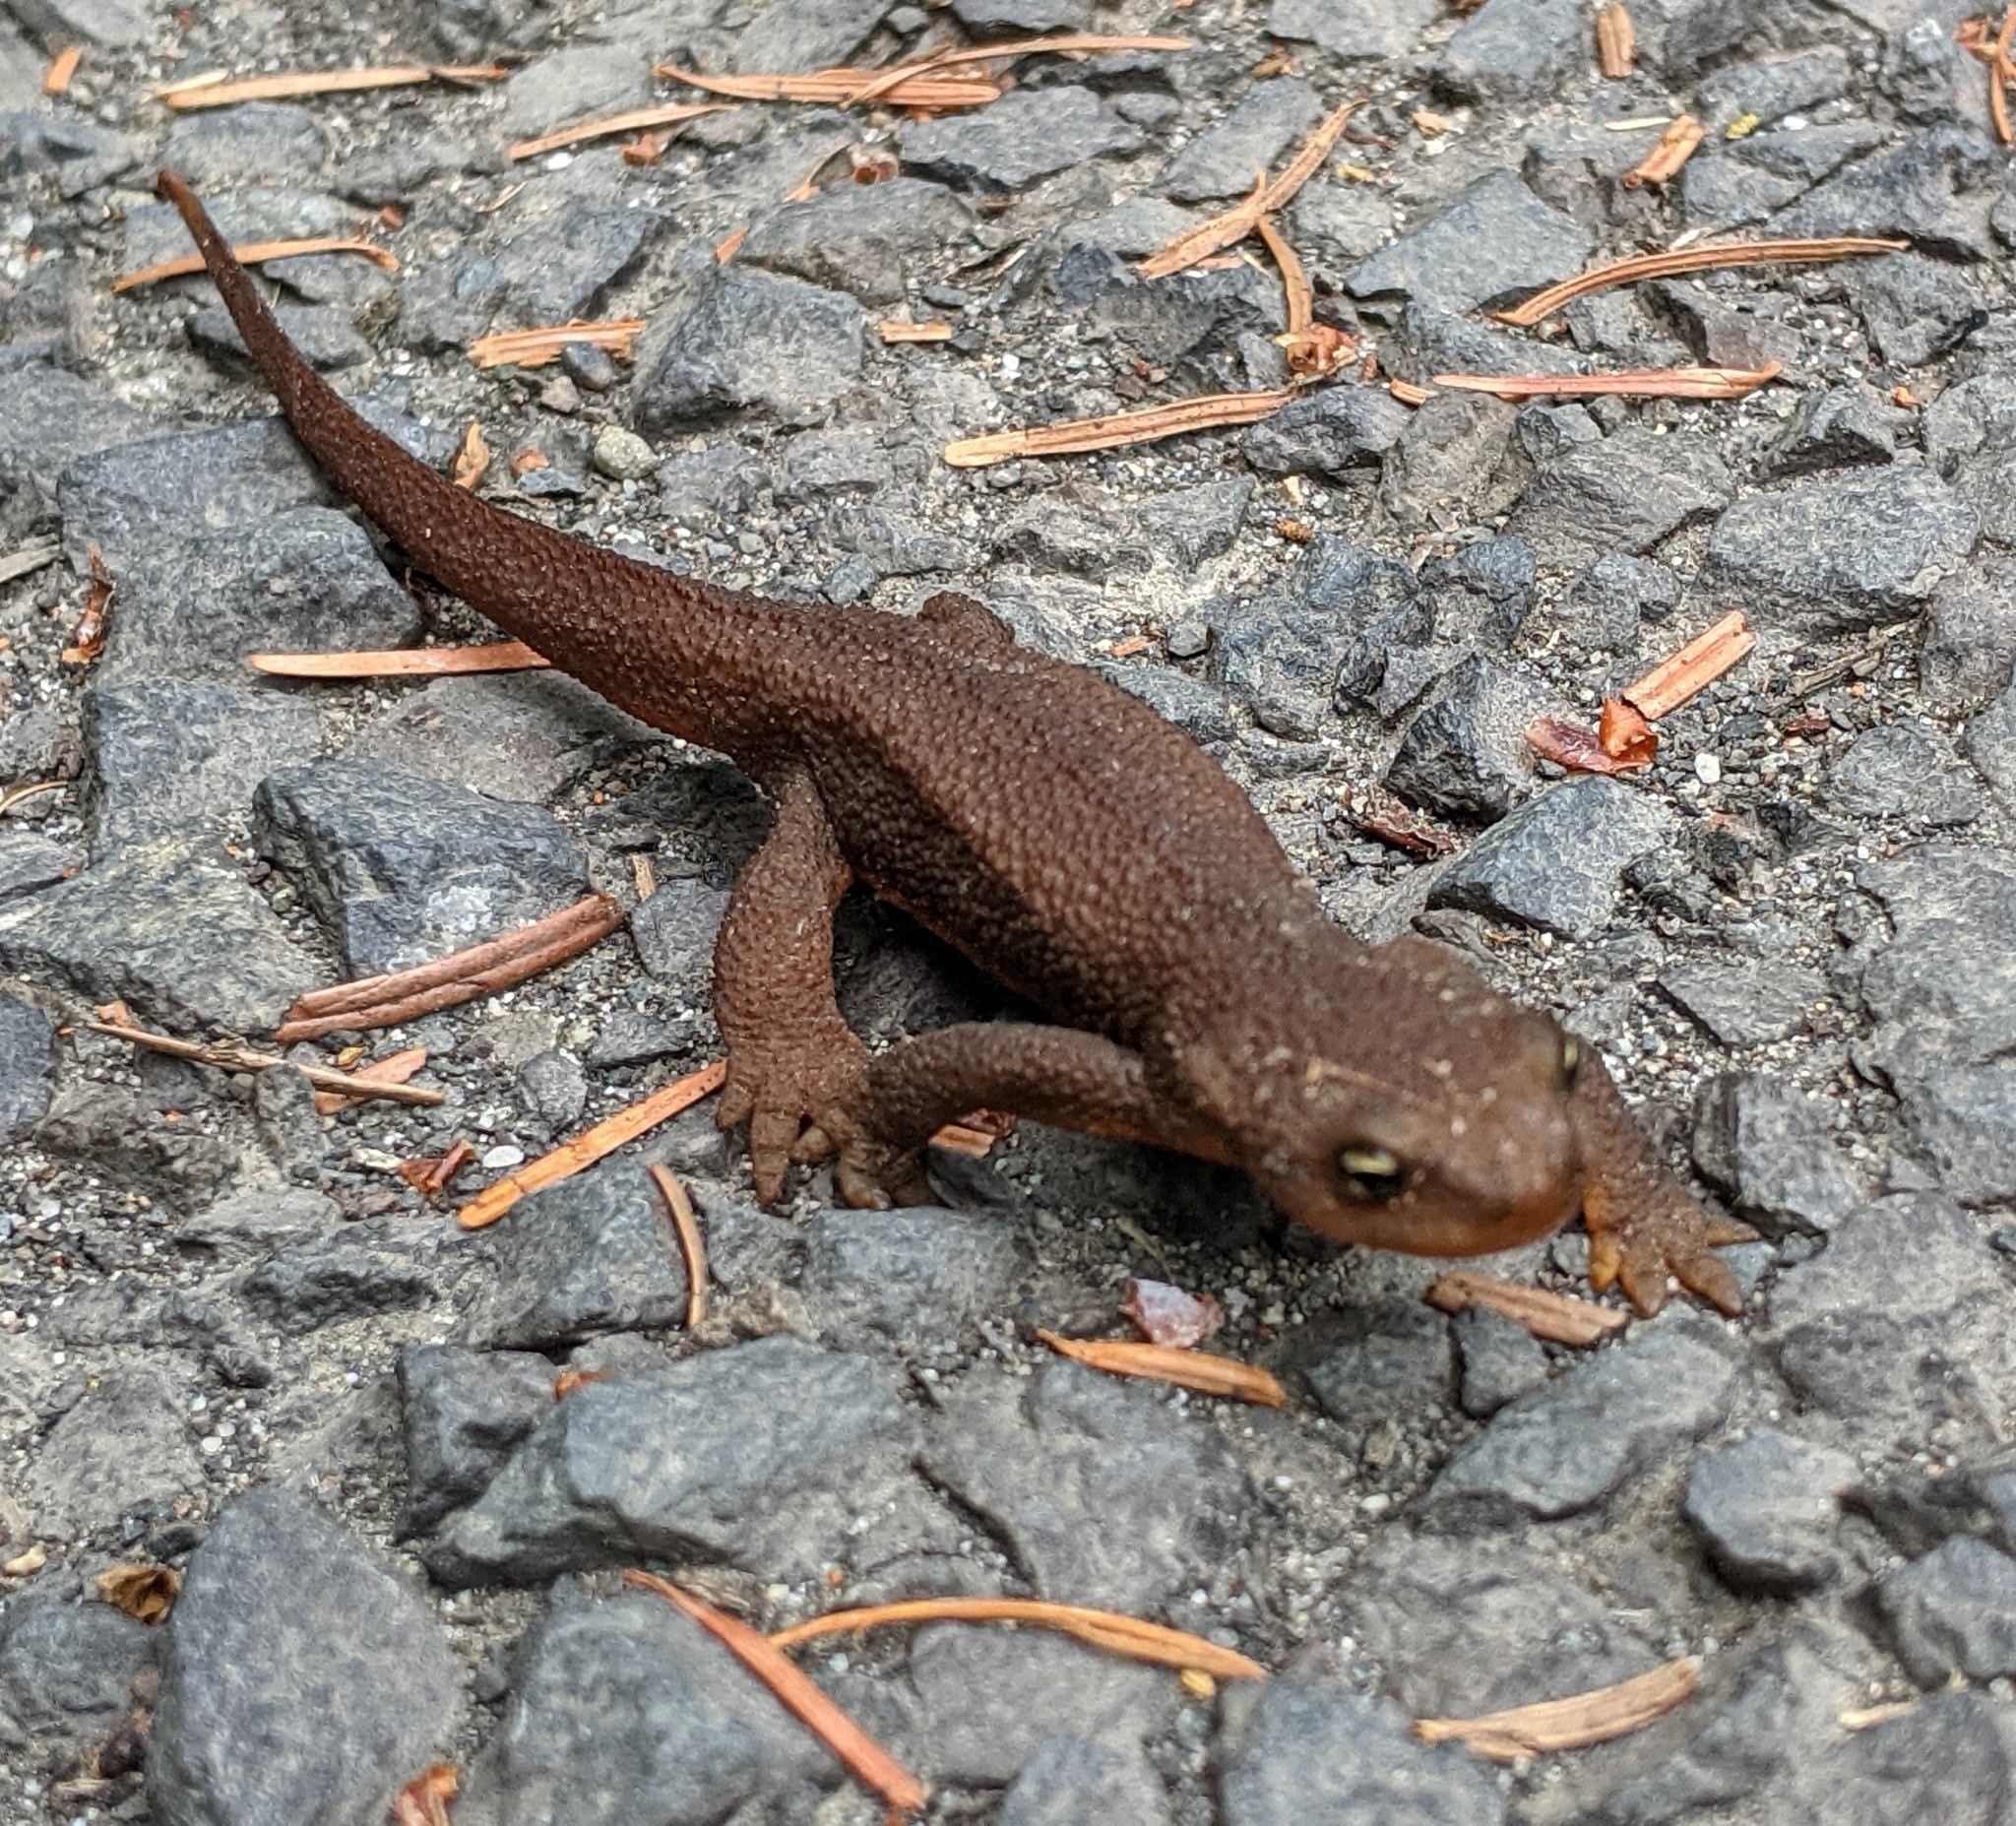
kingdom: Animalia
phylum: Chordata
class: Amphibia
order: Caudata
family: Salamandridae
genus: Taricha
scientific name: Taricha granulosa
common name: Roughskin newt
